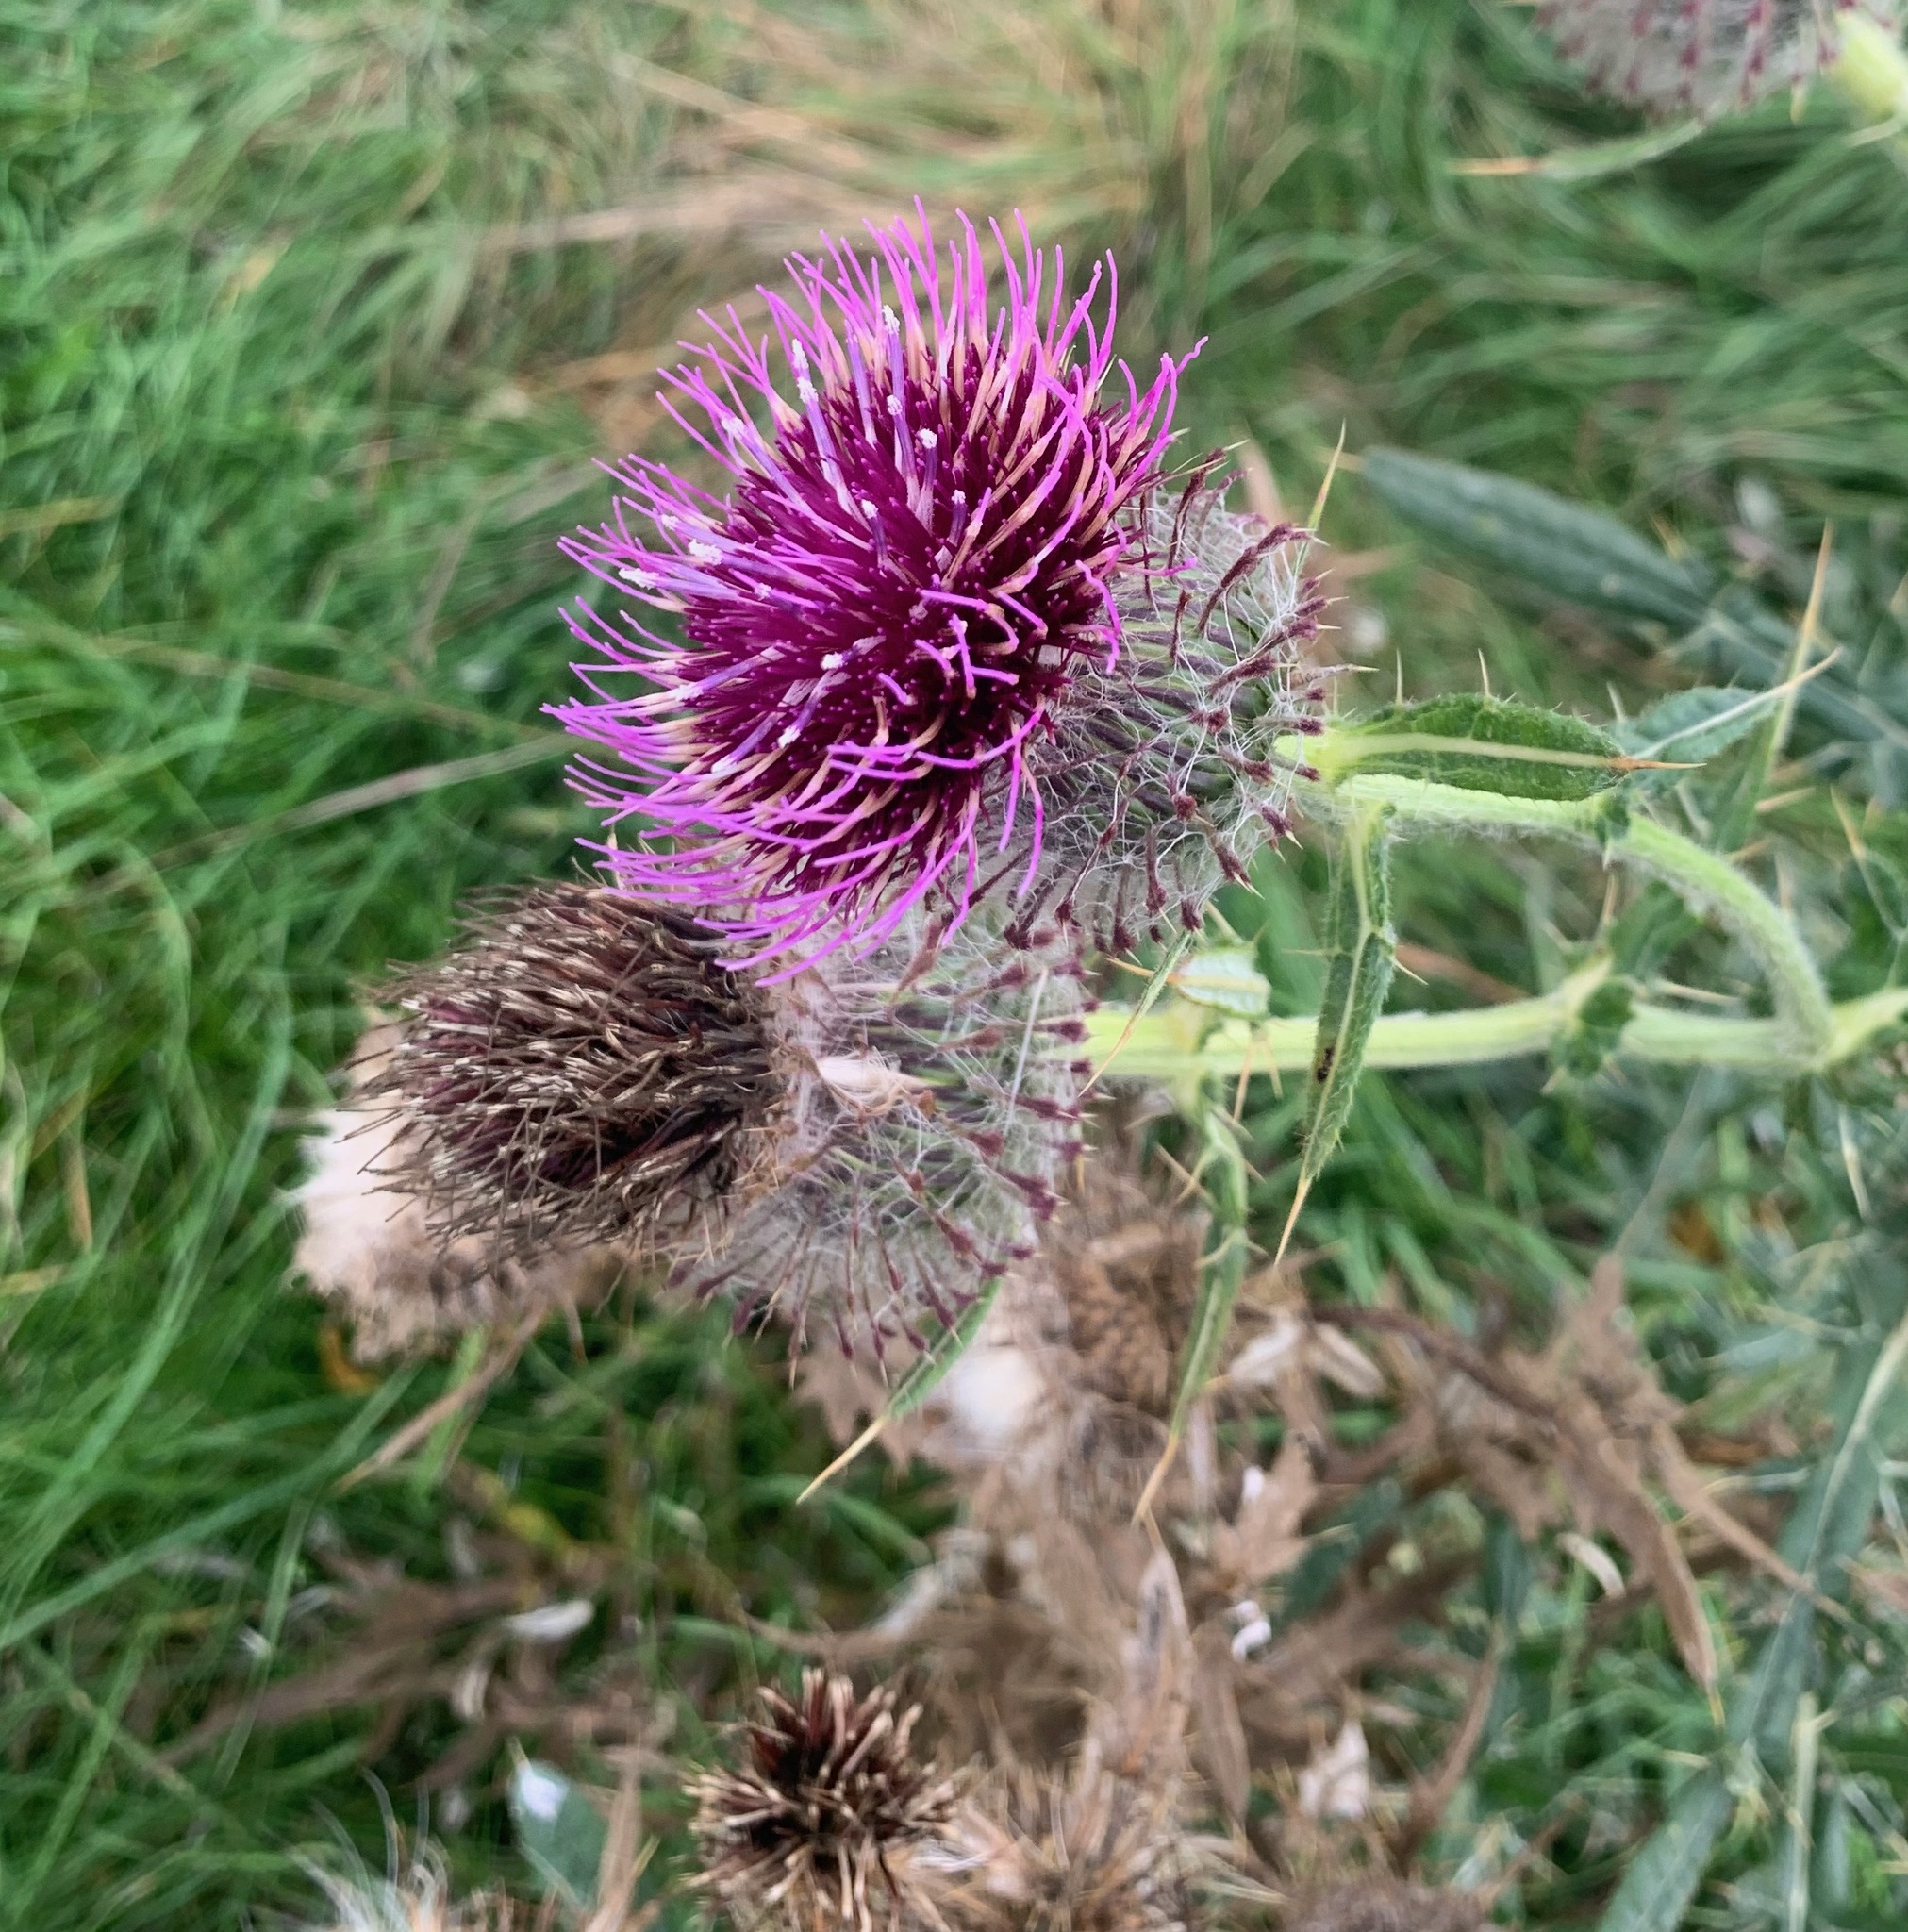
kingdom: Plantae
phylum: Tracheophyta
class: Magnoliopsida
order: Asterales
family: Asteraceae
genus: Lophiolepis
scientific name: Lophiolepis eriophora
